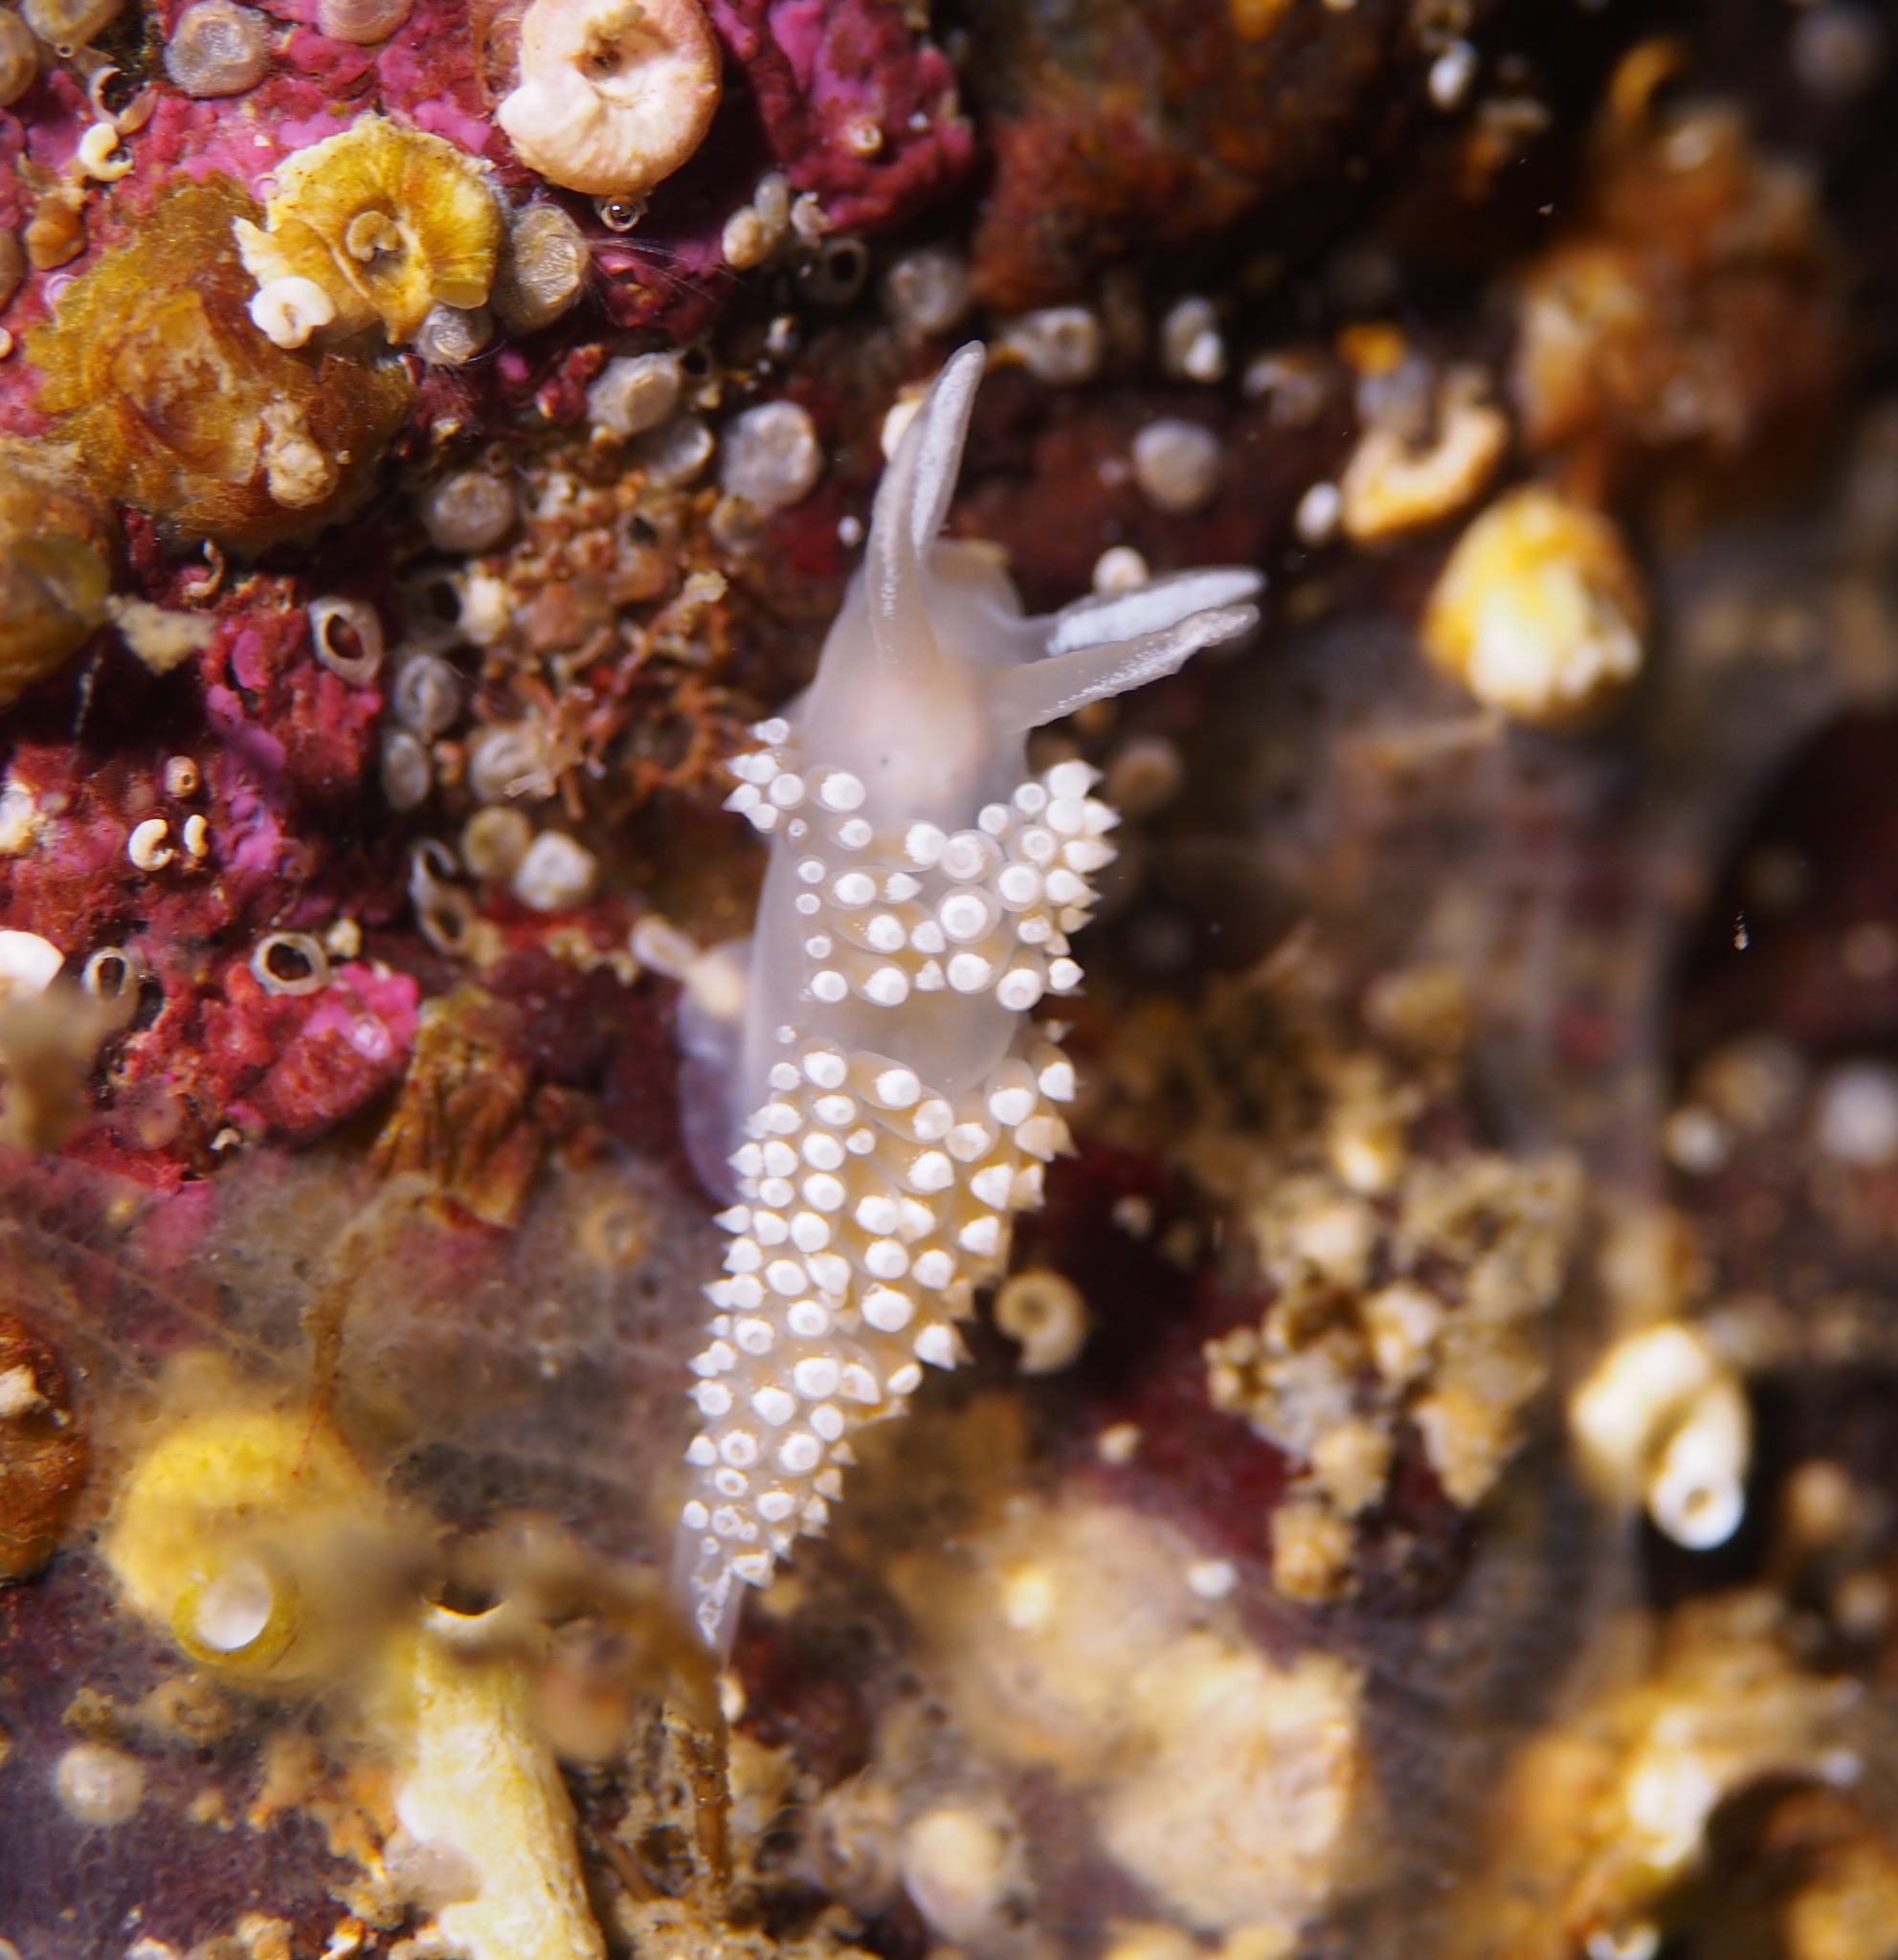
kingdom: Animalia
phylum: Mollusca
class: Gastropoda
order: Nudibranchia
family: Coryphellidae
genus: Coryphella
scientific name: Coryphella verrucosa
